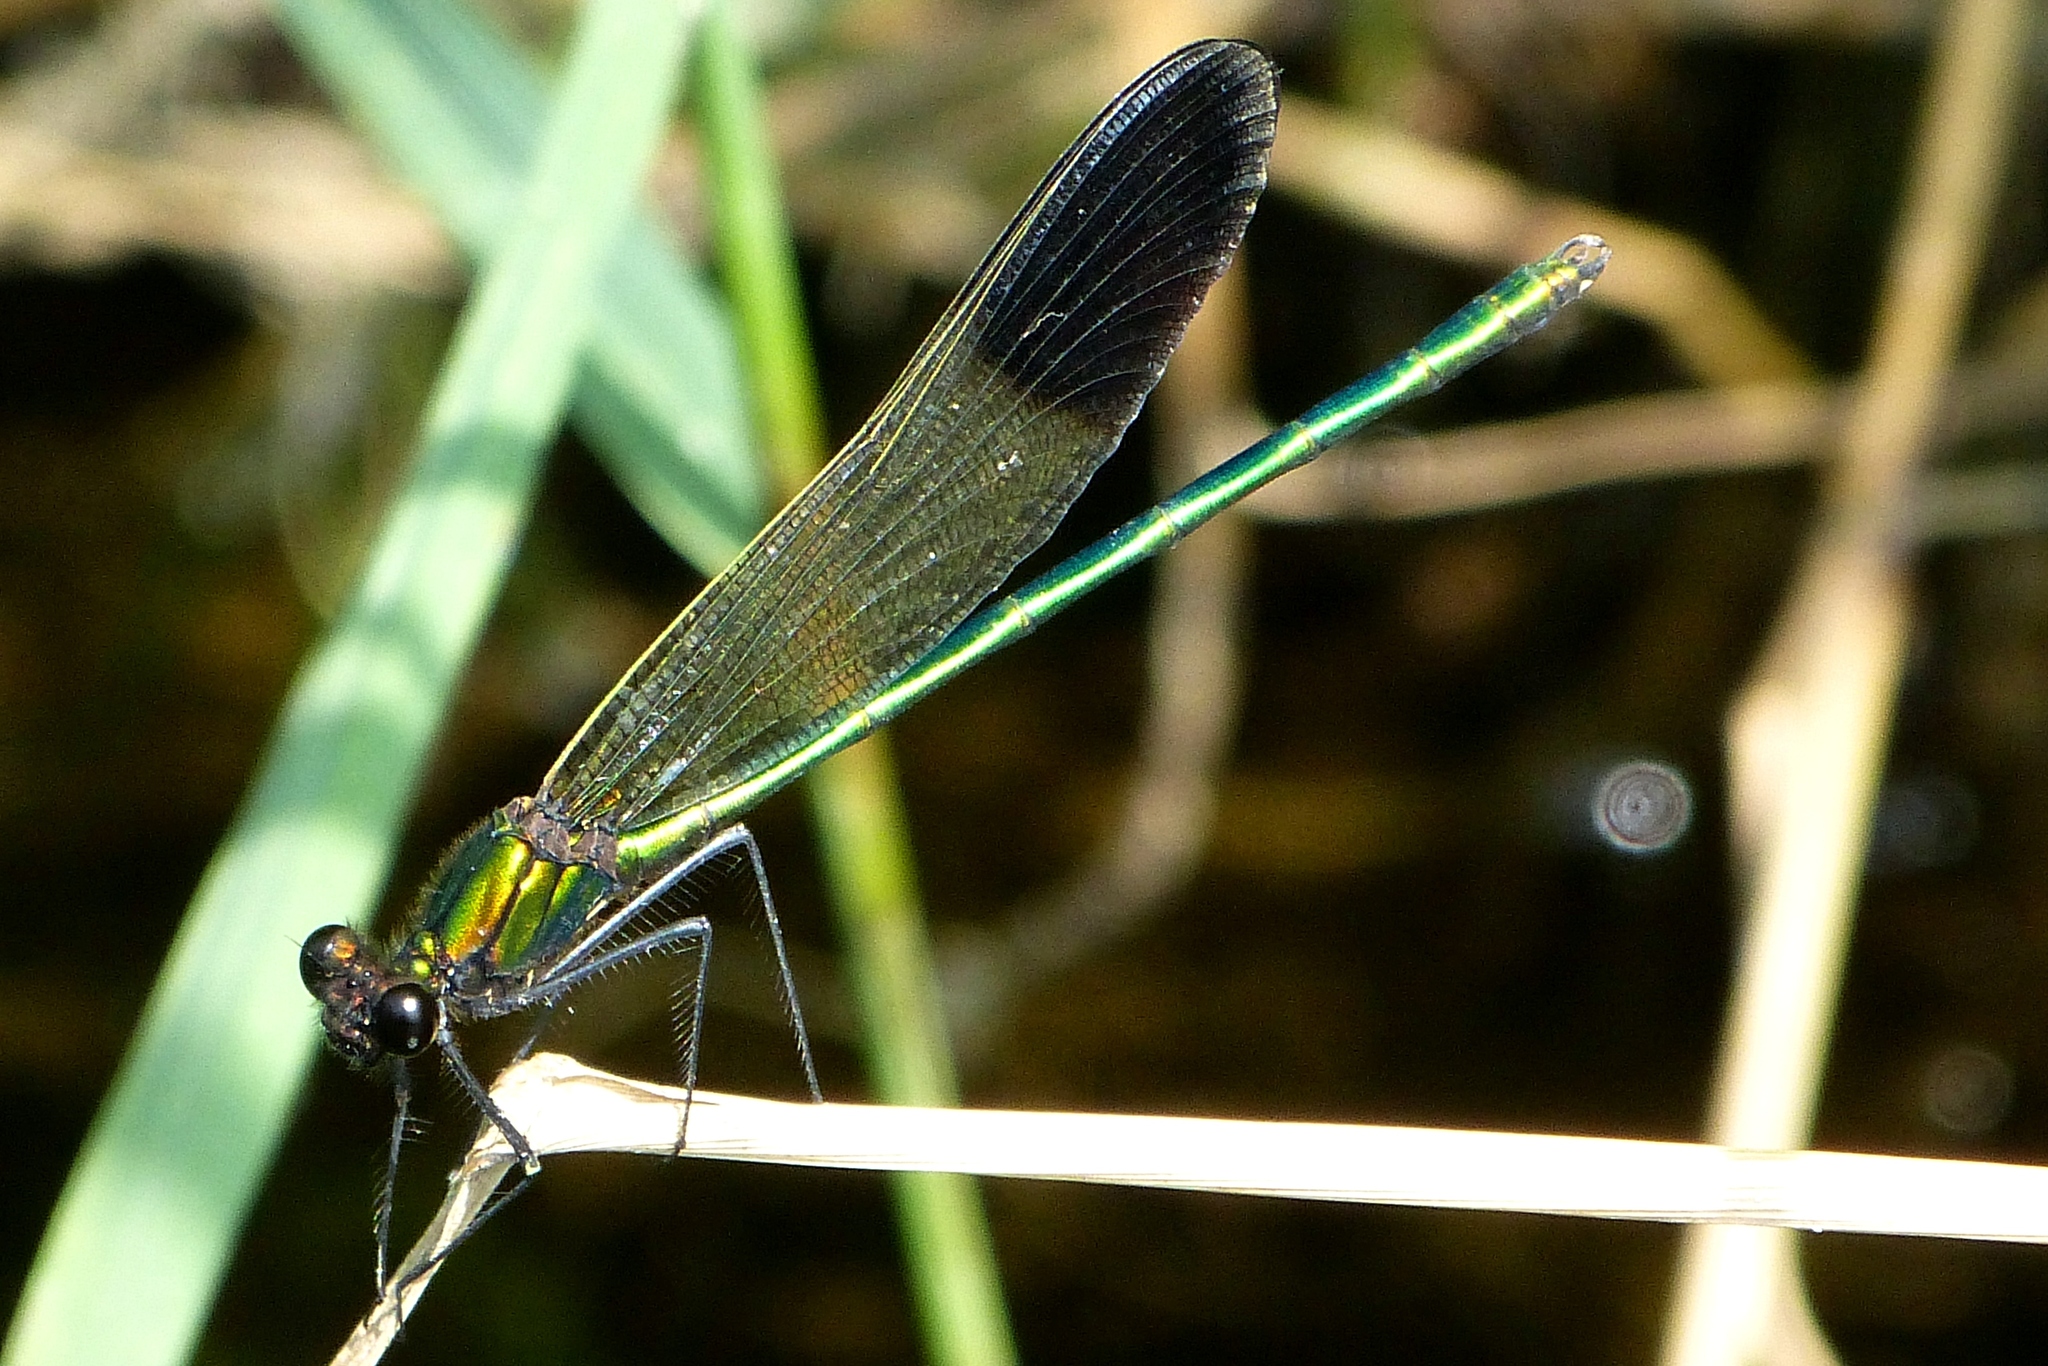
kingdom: Animalia
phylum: Arthropoda
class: Insecta
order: Odonata
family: Calopterygidae
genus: Calopteryx
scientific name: Calopteryx aequabilis
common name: River jewelwing
